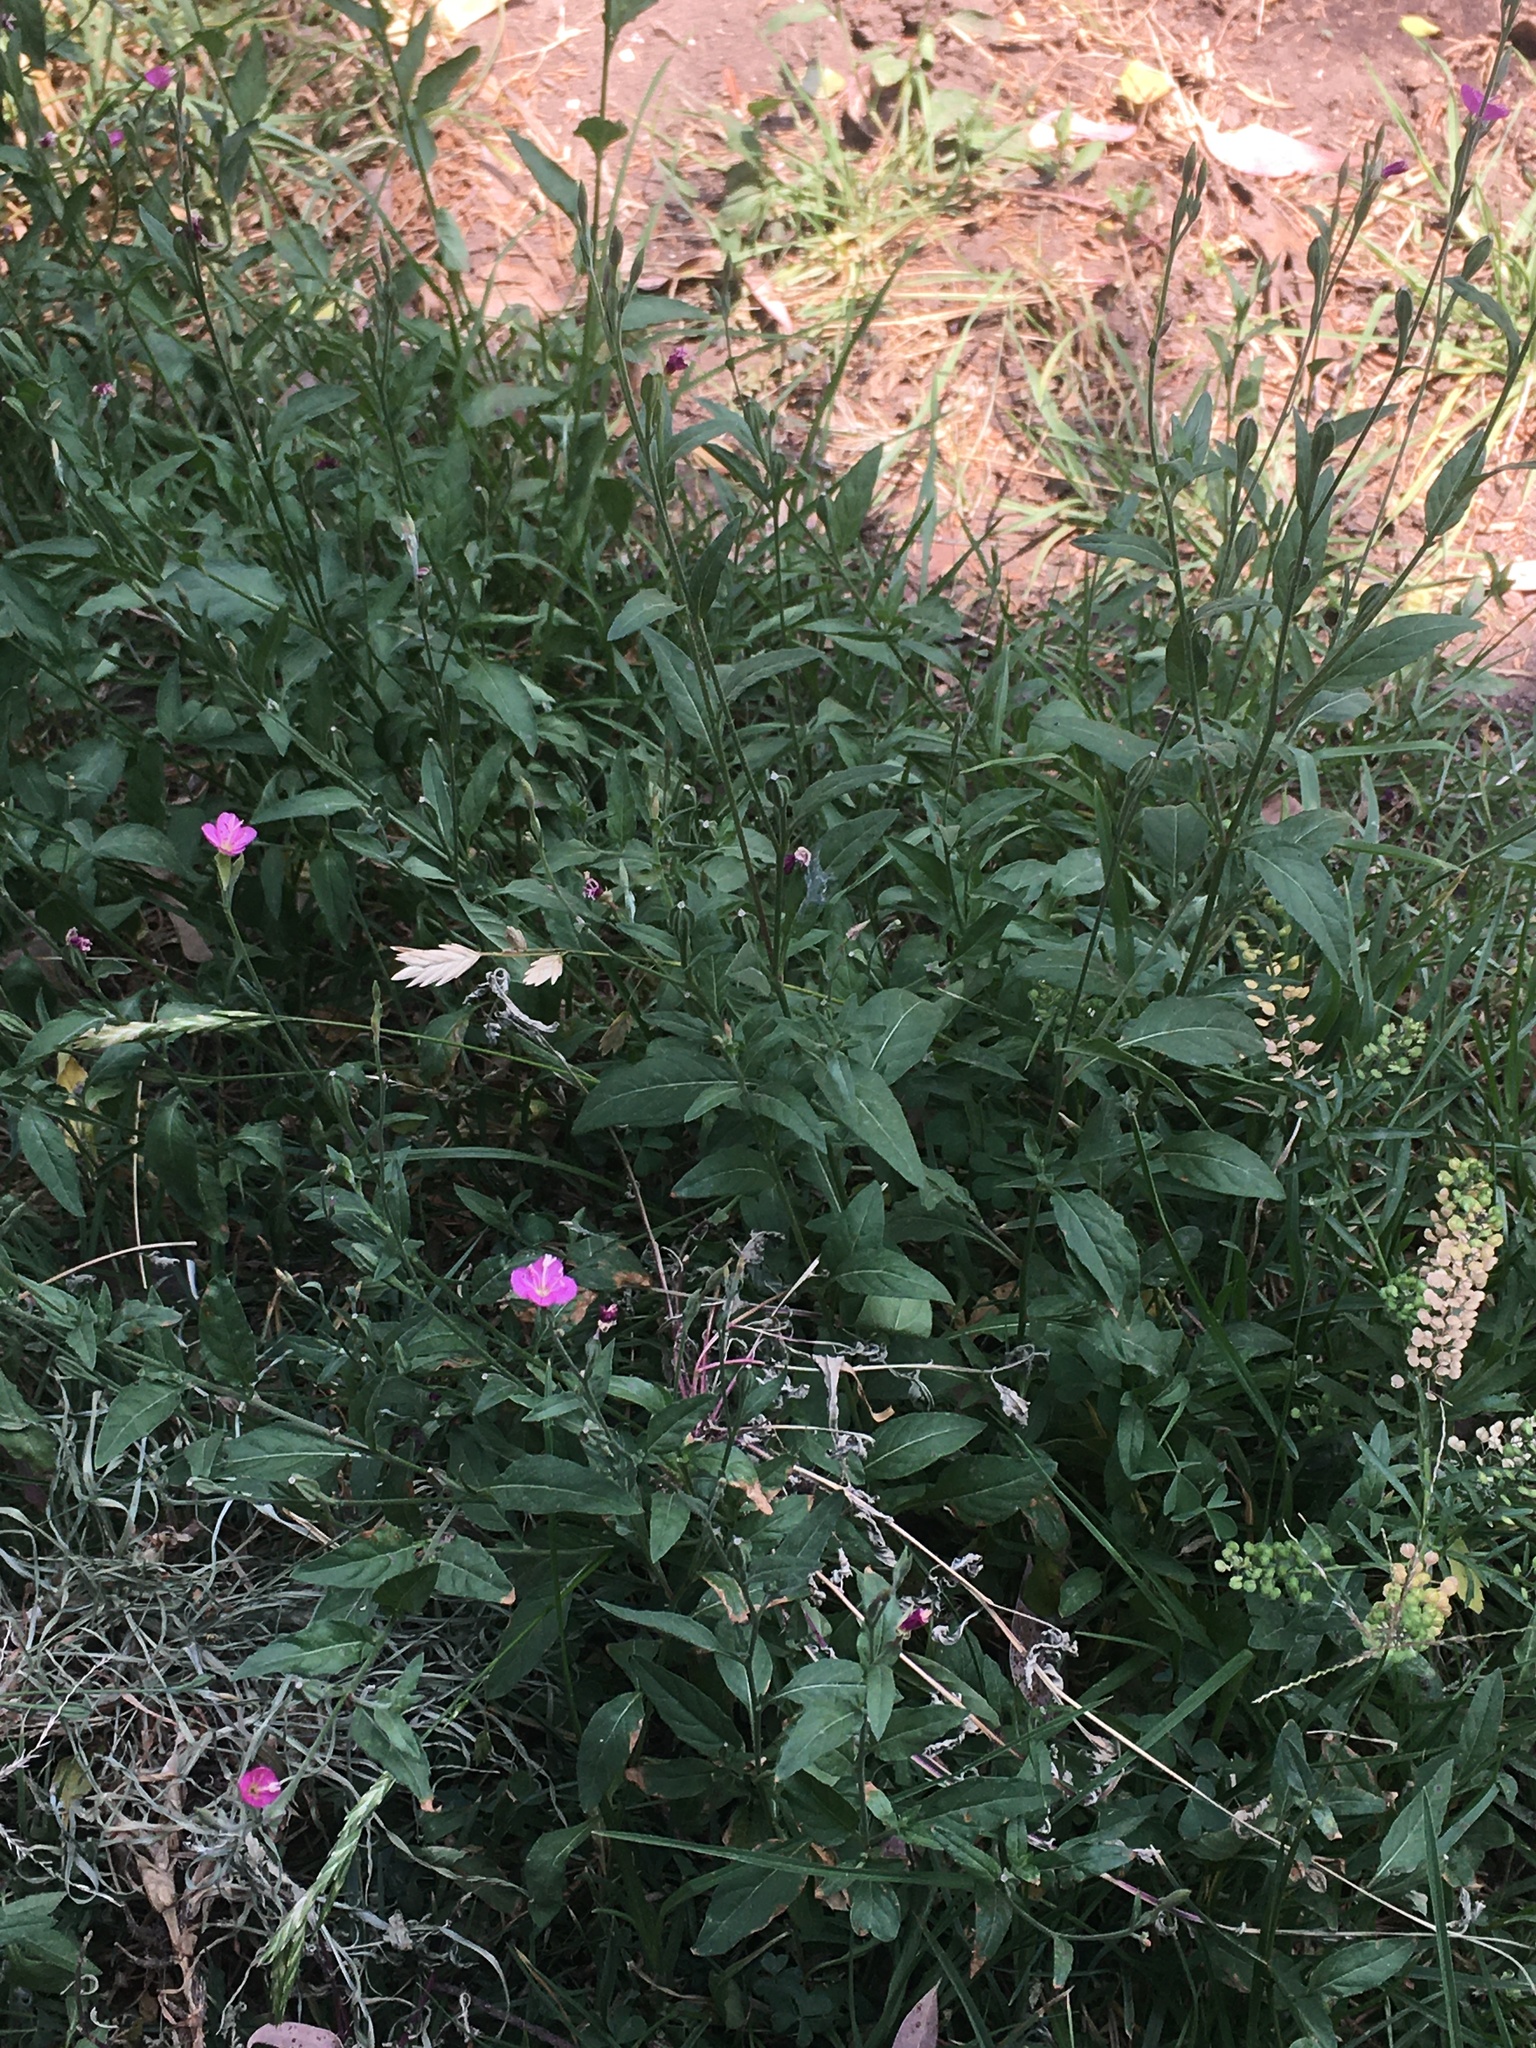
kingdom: Plantae
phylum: Tracheophyta
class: Magnoliopsida
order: Myrtales
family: Onagraceae
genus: Oenothera
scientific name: Oenothera rosea
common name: Rosy evening-primrose
